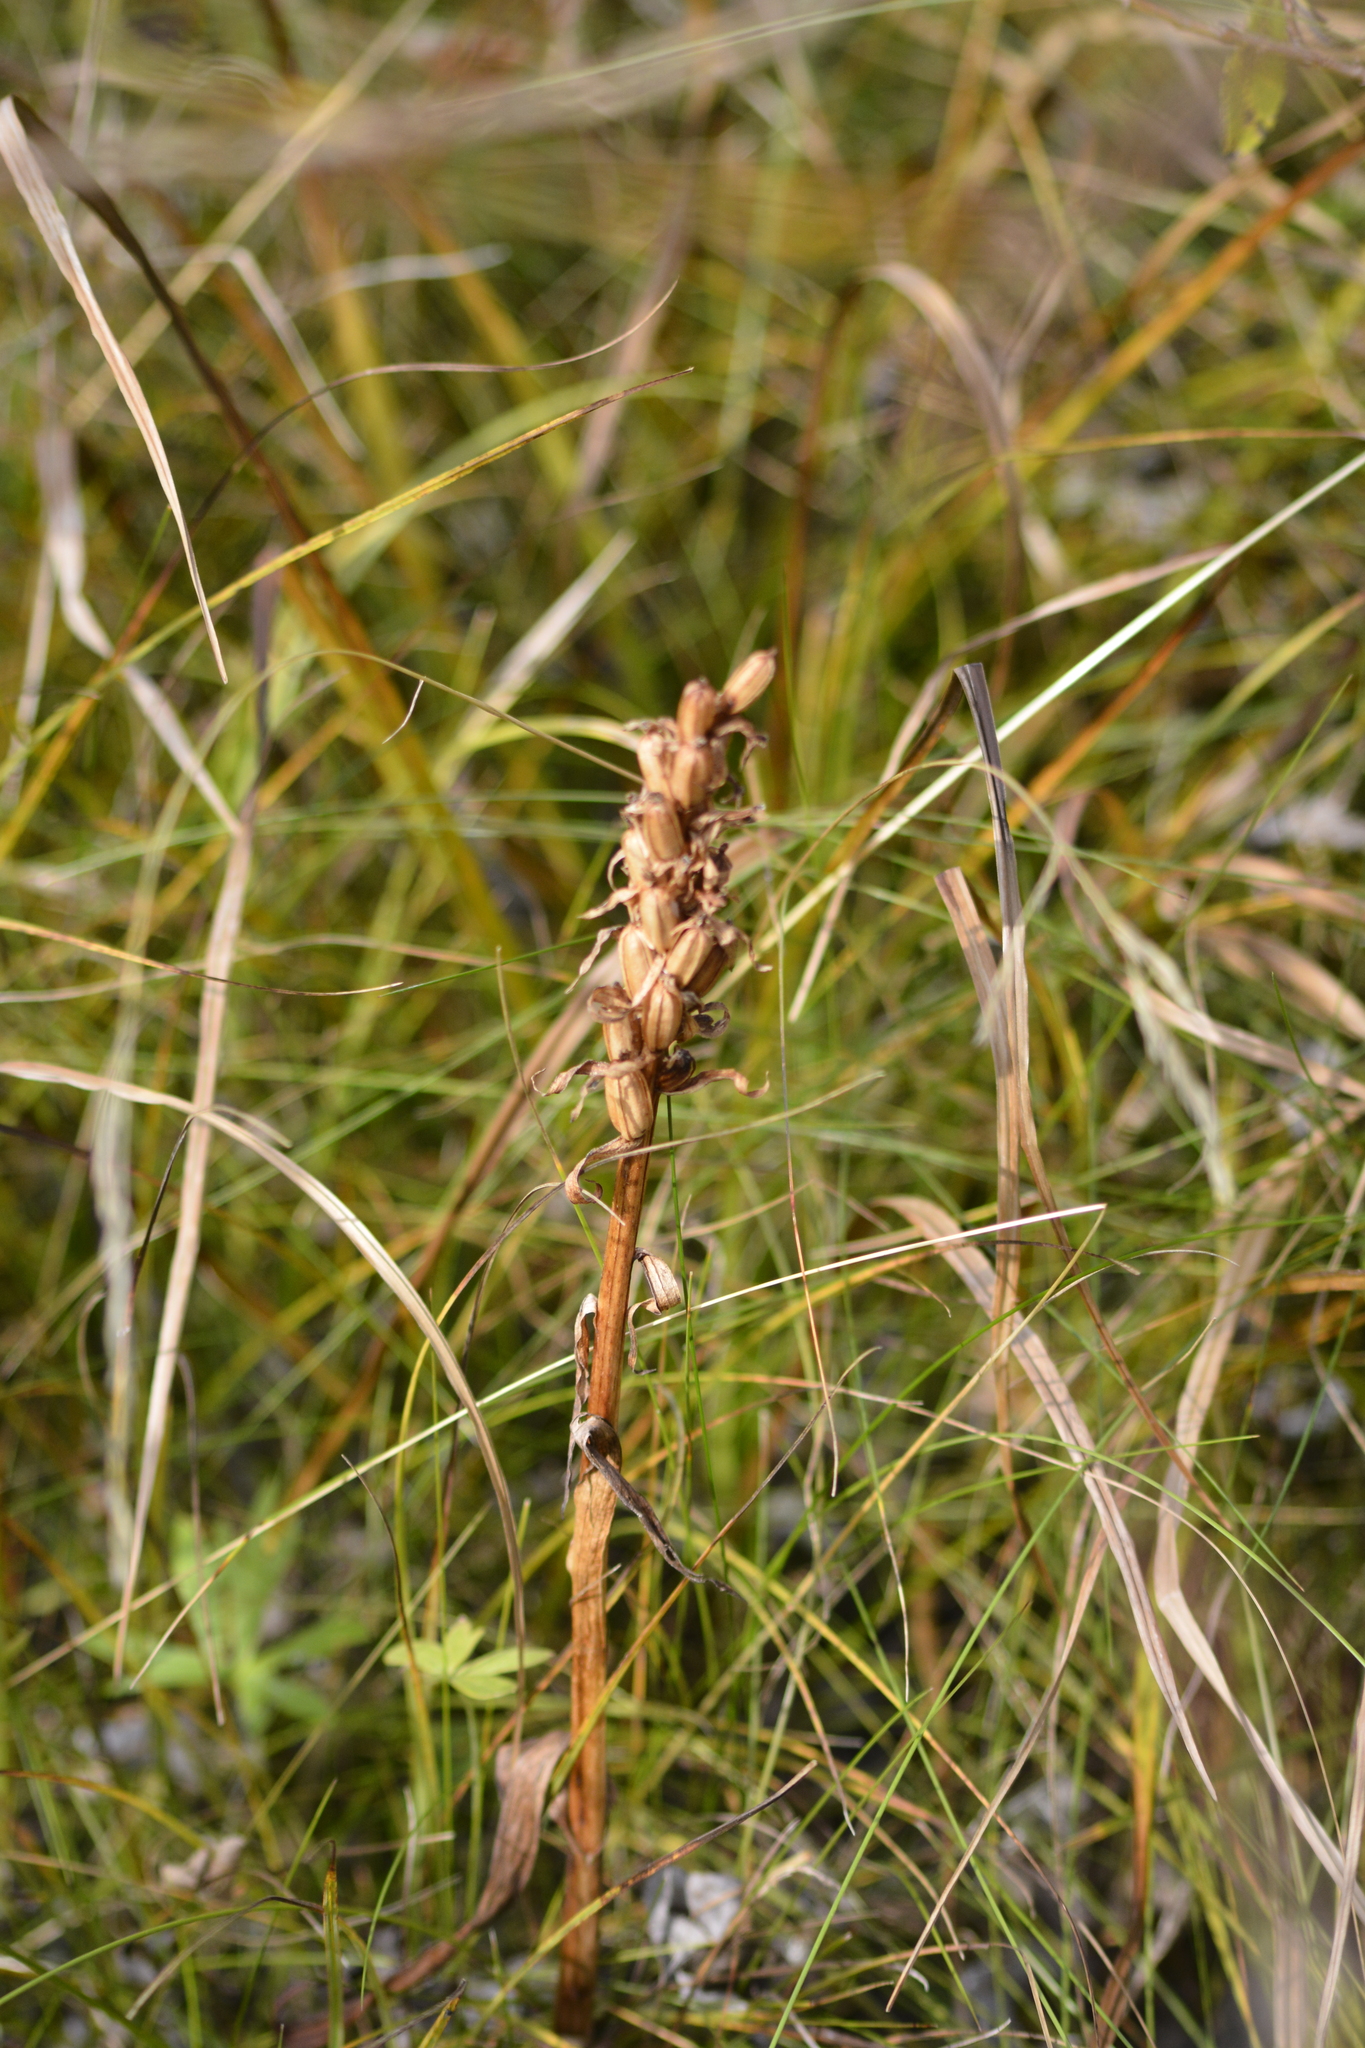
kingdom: Plantae
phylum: Tracheophyta
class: Liliopsida
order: Asparagales
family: Orchidaceae
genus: Dactylorhiza
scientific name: Dactylorhiza incarnata
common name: Early marsh-orchid
